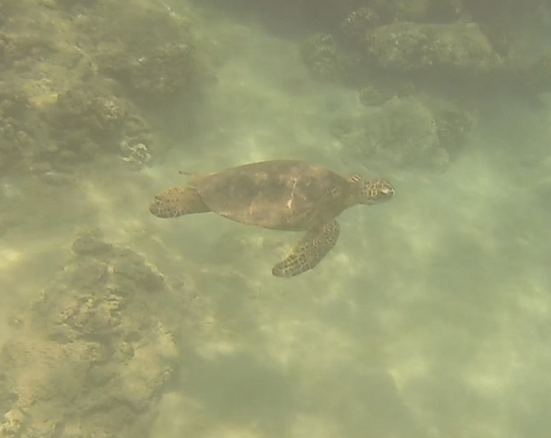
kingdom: Animalia
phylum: Chordata
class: Testudines
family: Cheloniidae
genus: Chelonia
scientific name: Chelonia mydas
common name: Green turtle
